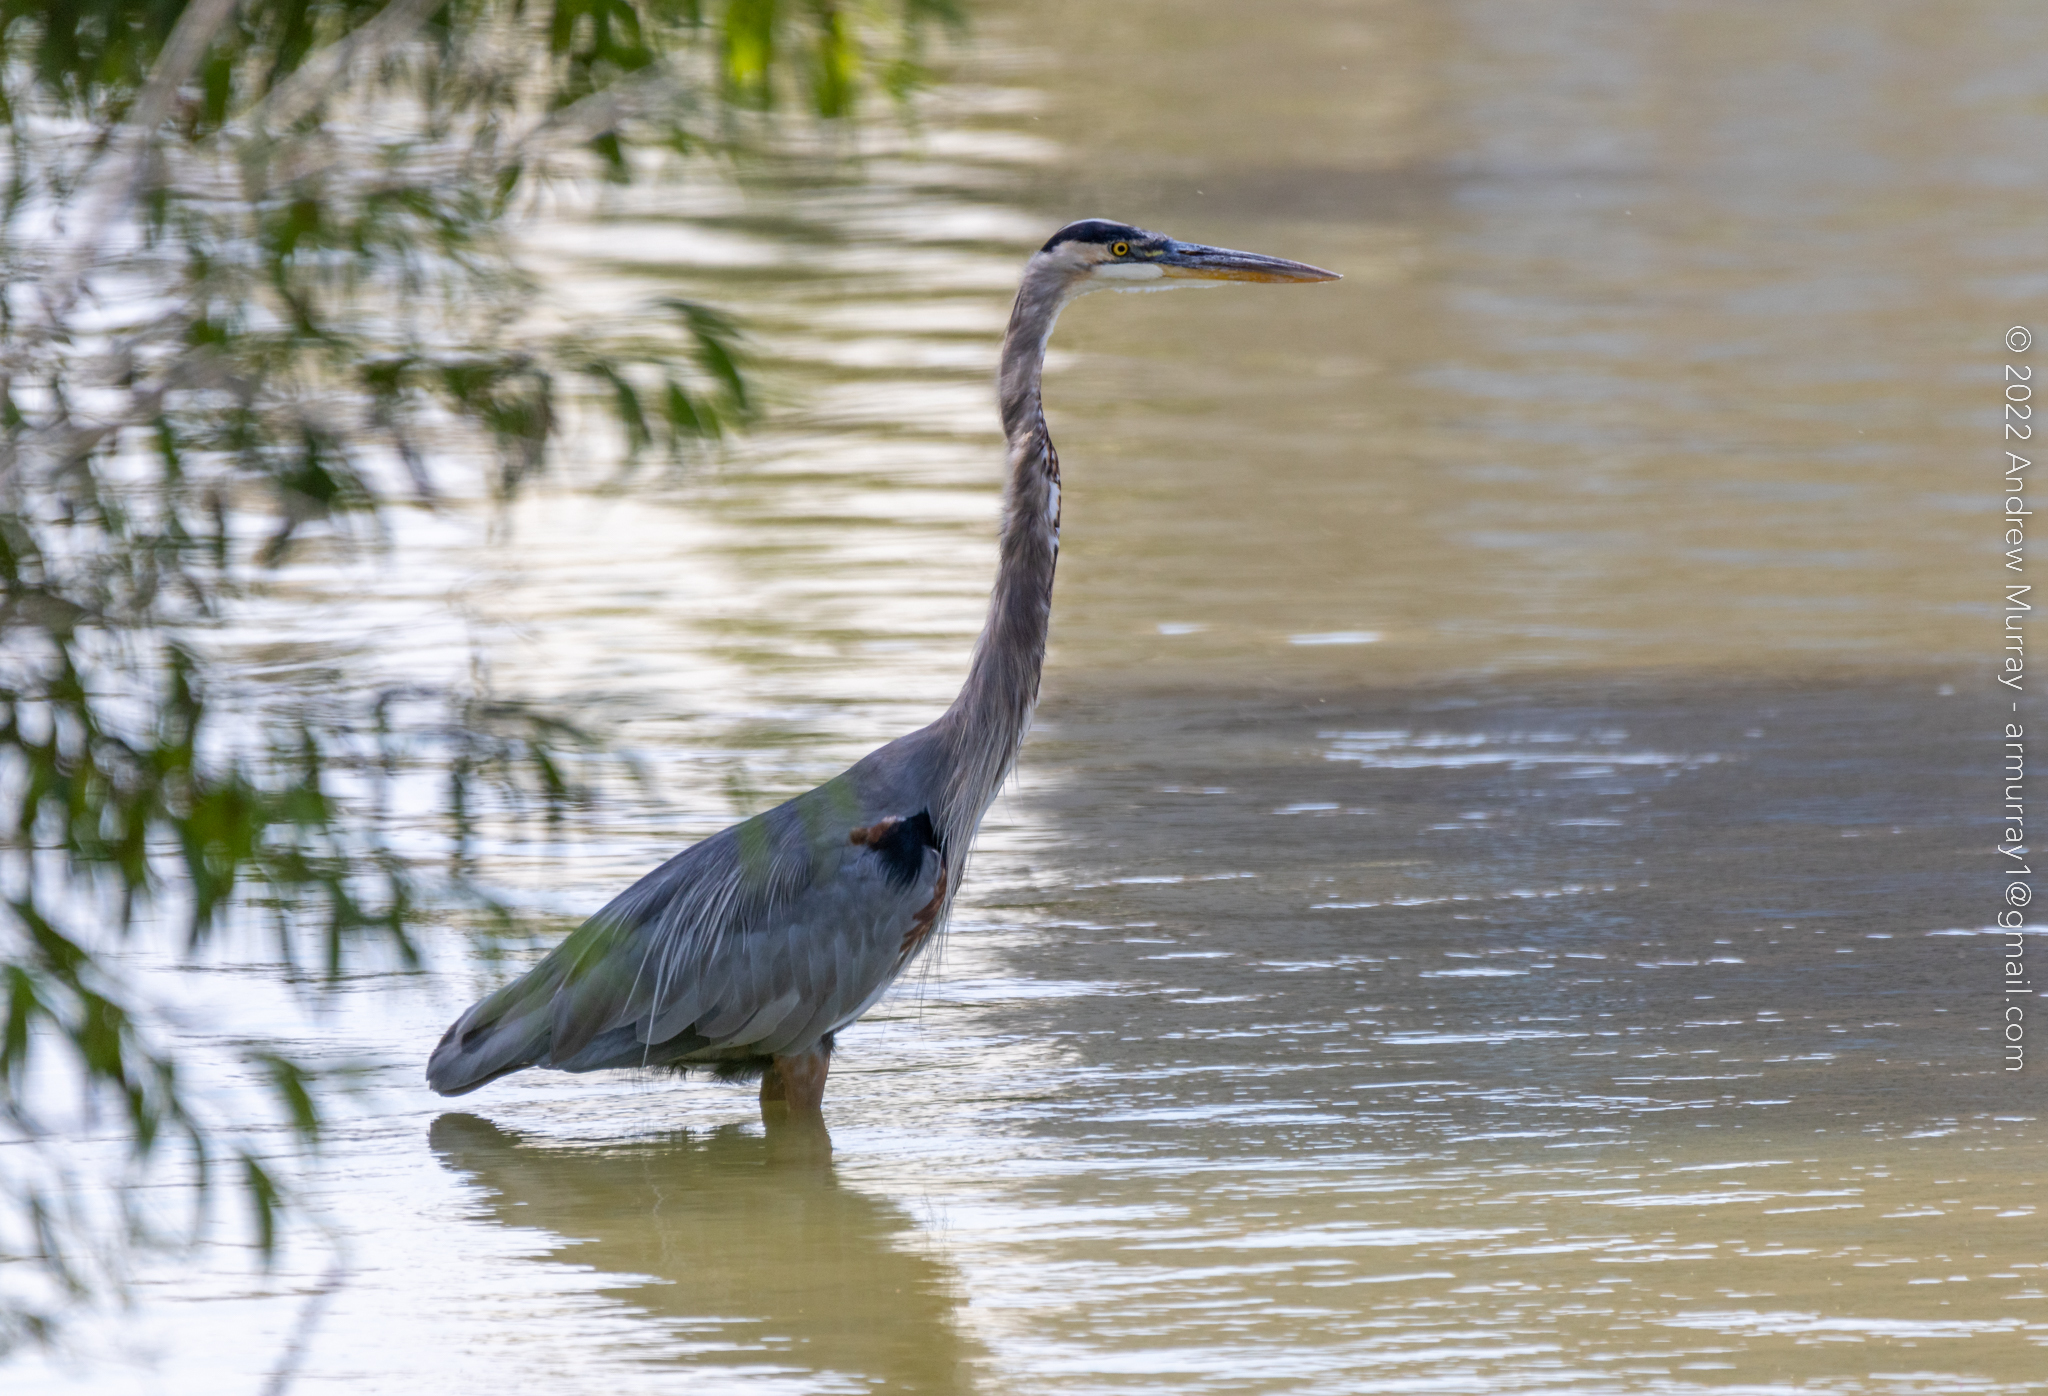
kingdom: Animalia
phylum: Chordata
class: Aves
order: Pelecaniformes
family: Ardeidae
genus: Ardea
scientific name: Ardea herodias
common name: Great blue heron
